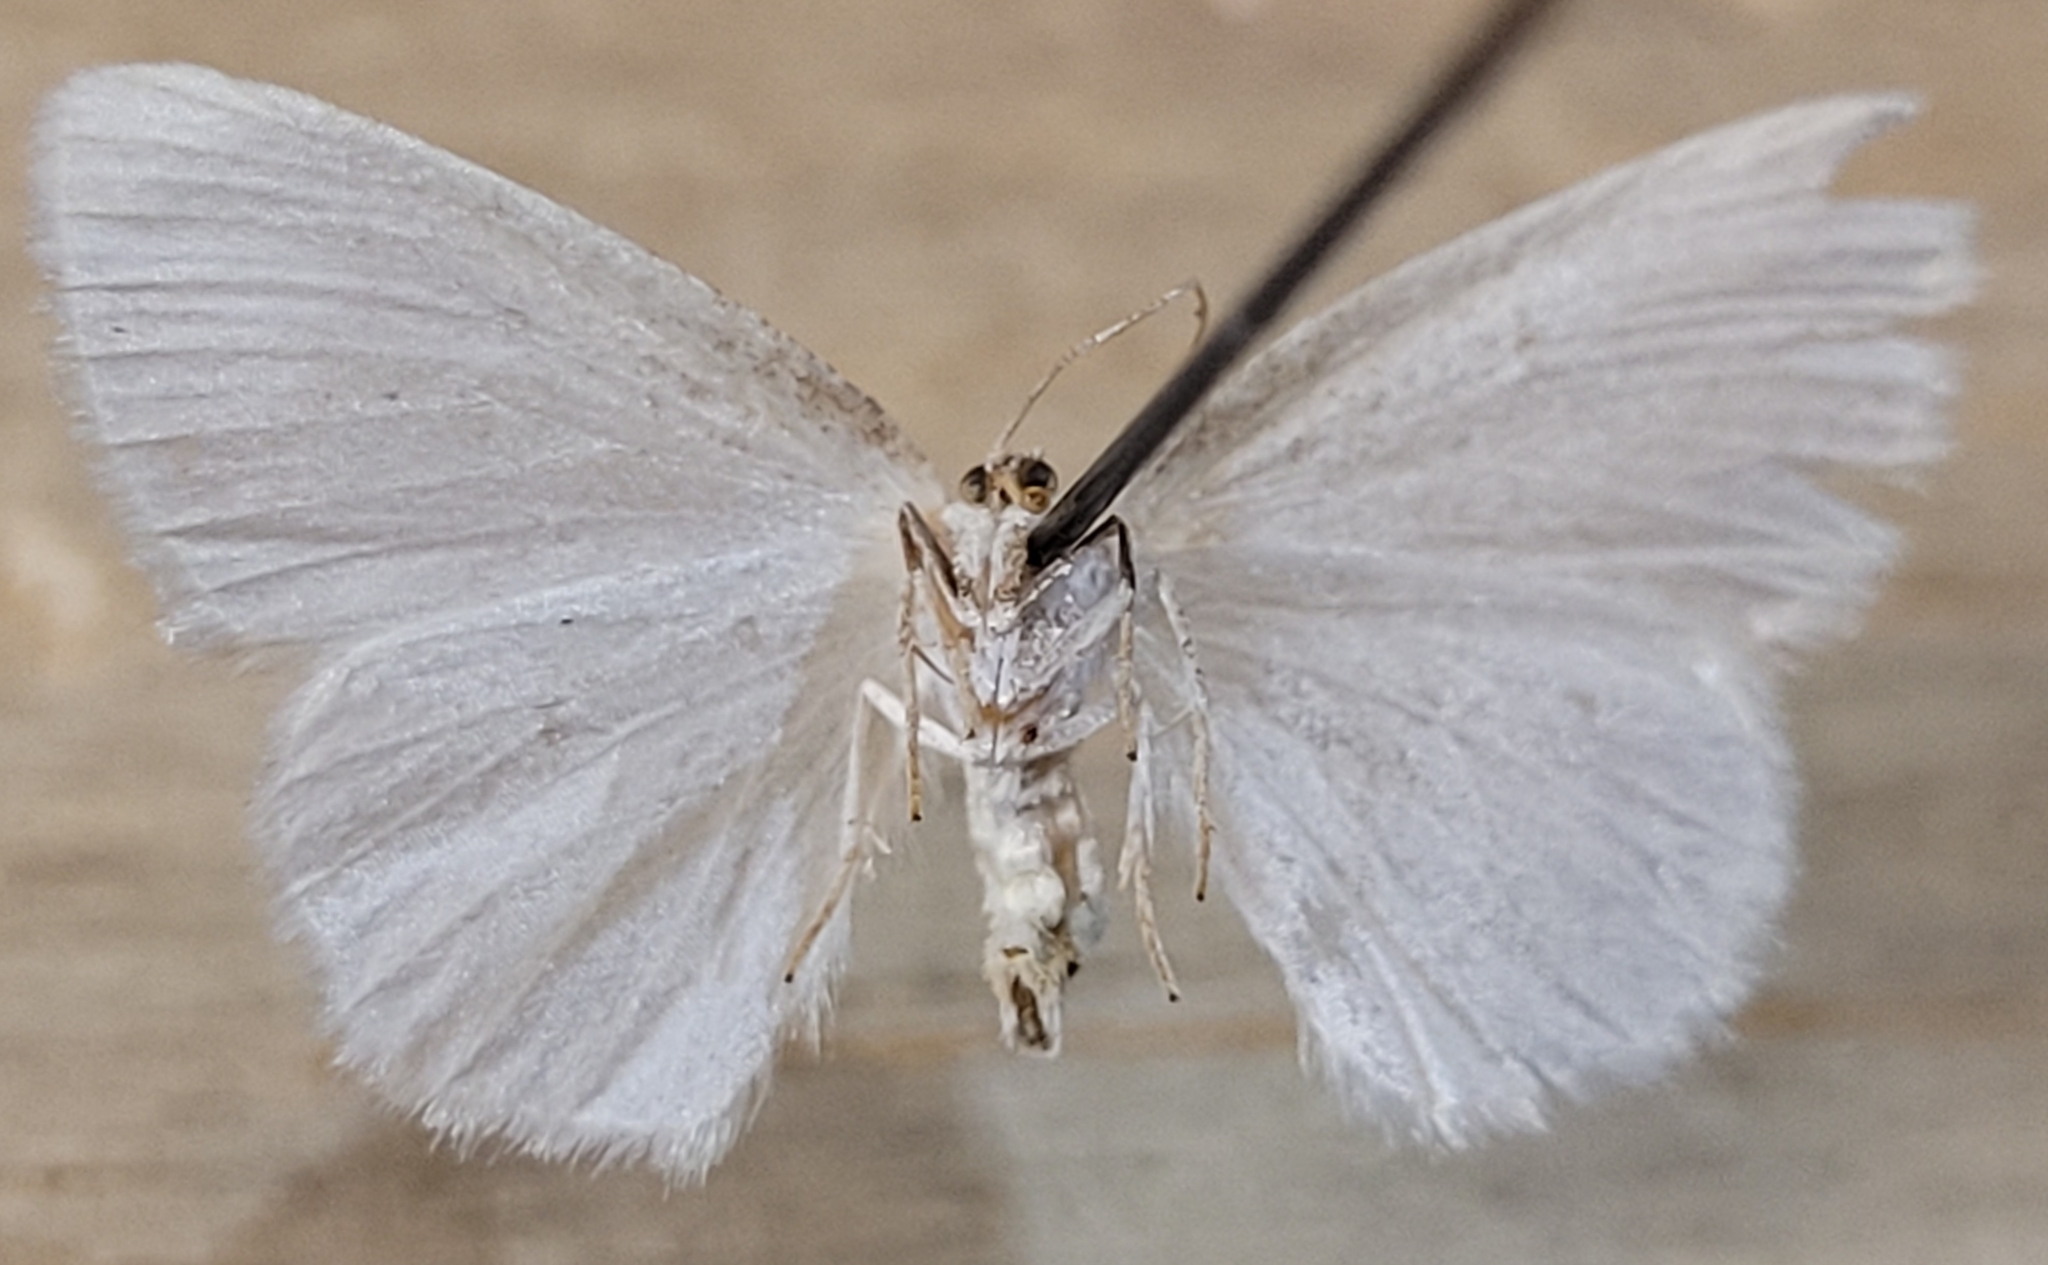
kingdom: Animalia
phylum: Arthropoda
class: Insecta
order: Lepidoptera
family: Geometridae
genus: Protitame
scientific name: Protitame virginalis
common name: Virgin moth
